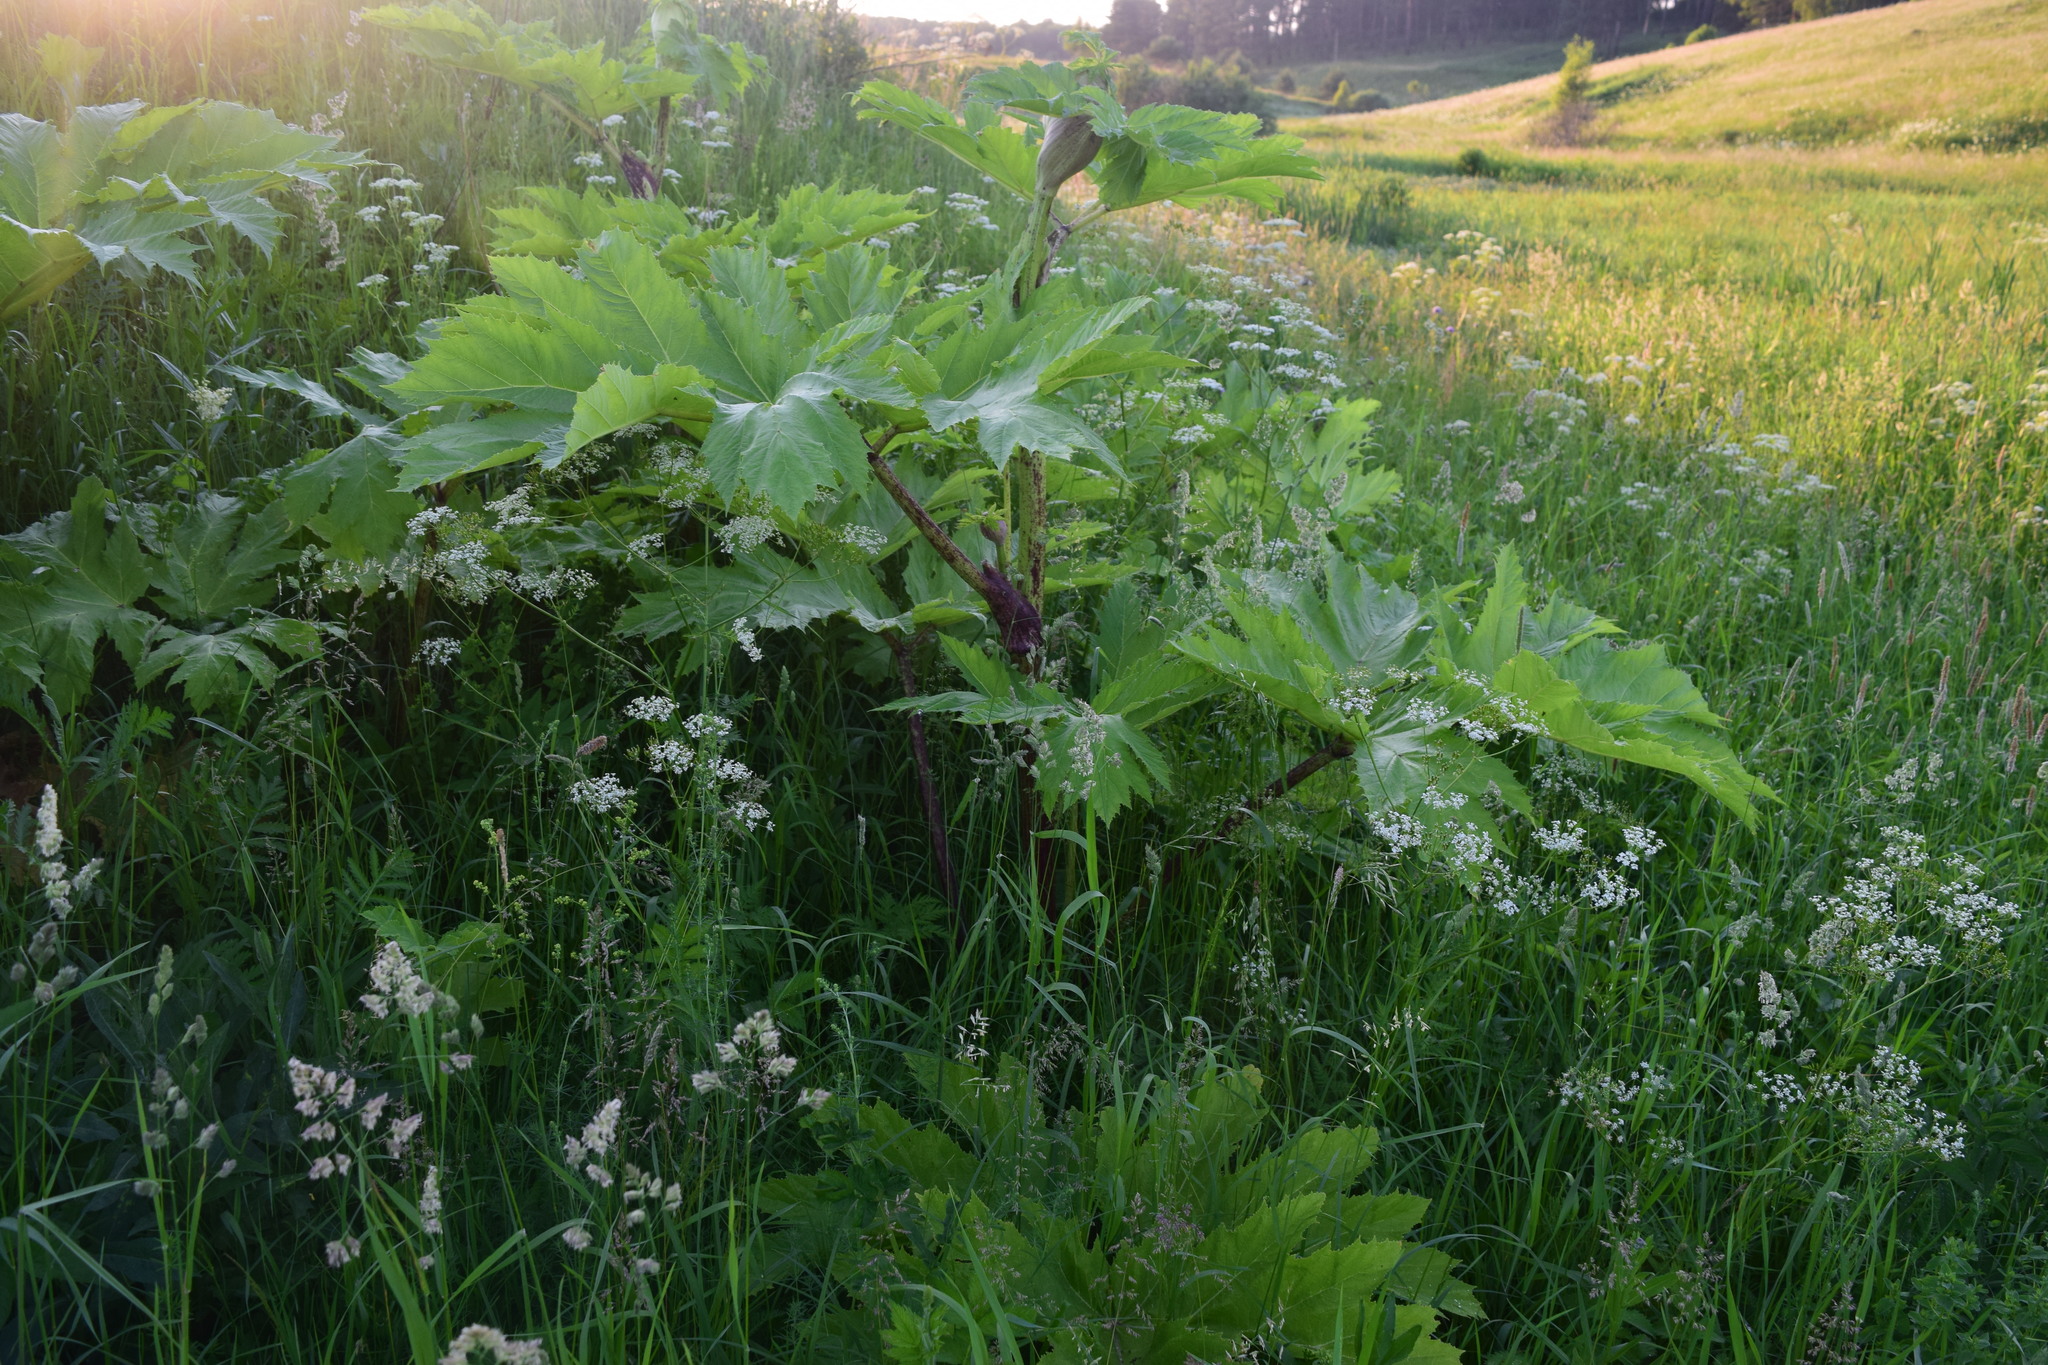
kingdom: Plantae
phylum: Tracheophyta
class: Magnoliopsida
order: Apiales
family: Apiaceae
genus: Heracleum
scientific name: Heracleum sosnowskyi
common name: Sosnowsky's hogweed
